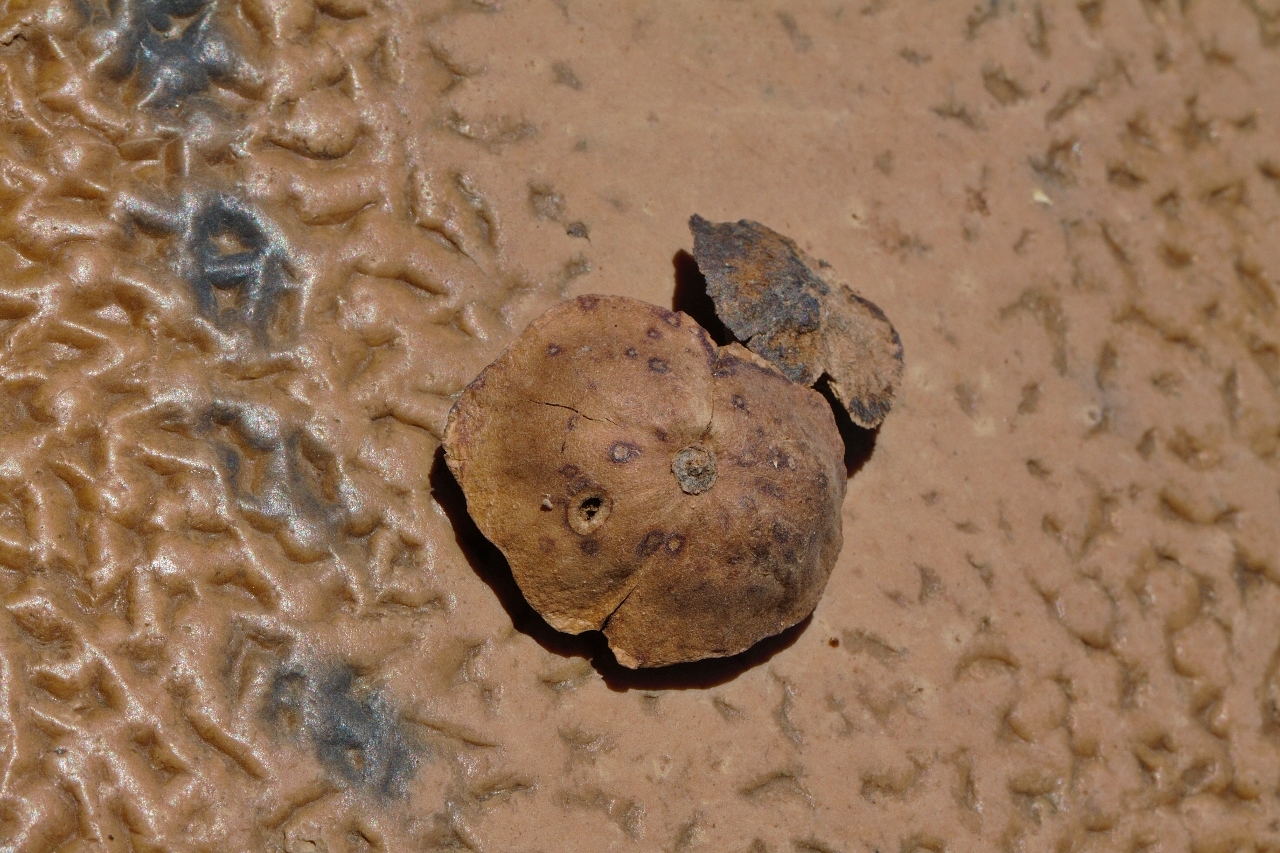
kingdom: Plantae
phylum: Tracheophyta
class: Magnoliopsida
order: Lamiales
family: Pedaliaceae
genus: Dicerocaryum
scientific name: Dicerocaryum senecioides
